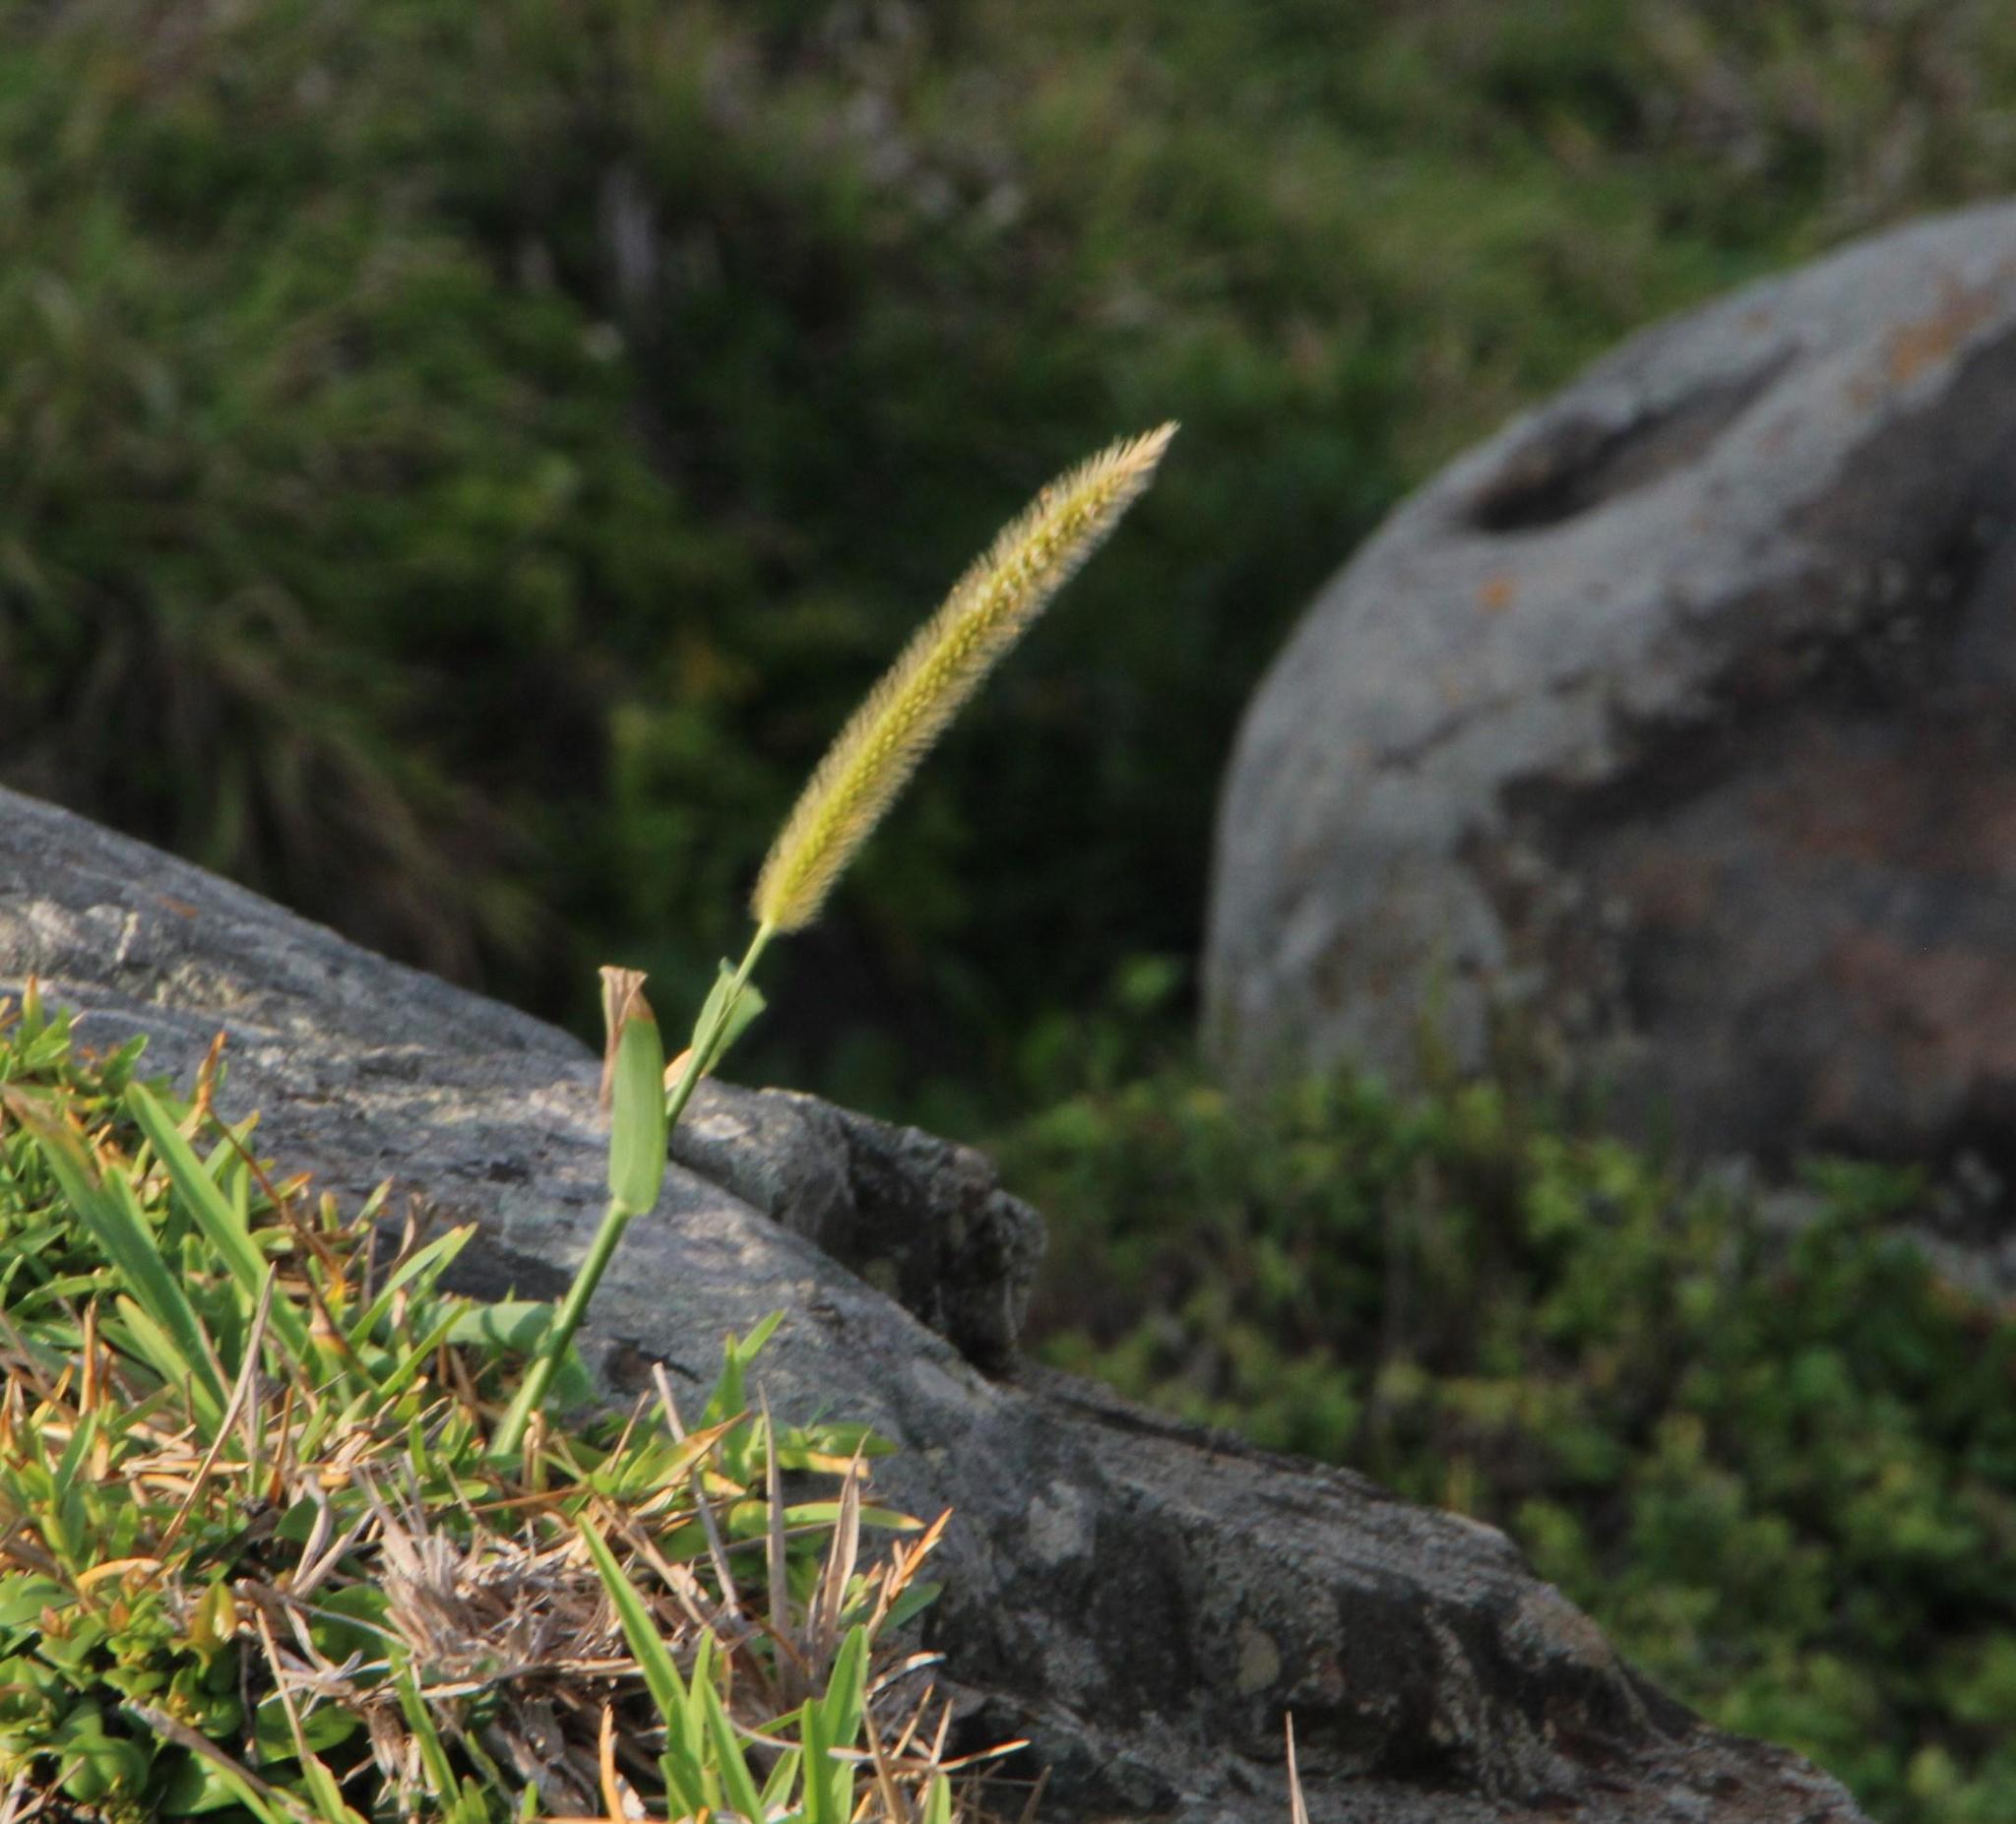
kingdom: Plantae
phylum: Tracheophyta
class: Liliopsida
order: Poales
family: Poaceae
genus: Setaria
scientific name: Setaria sphacelata
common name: African bristlegrass
